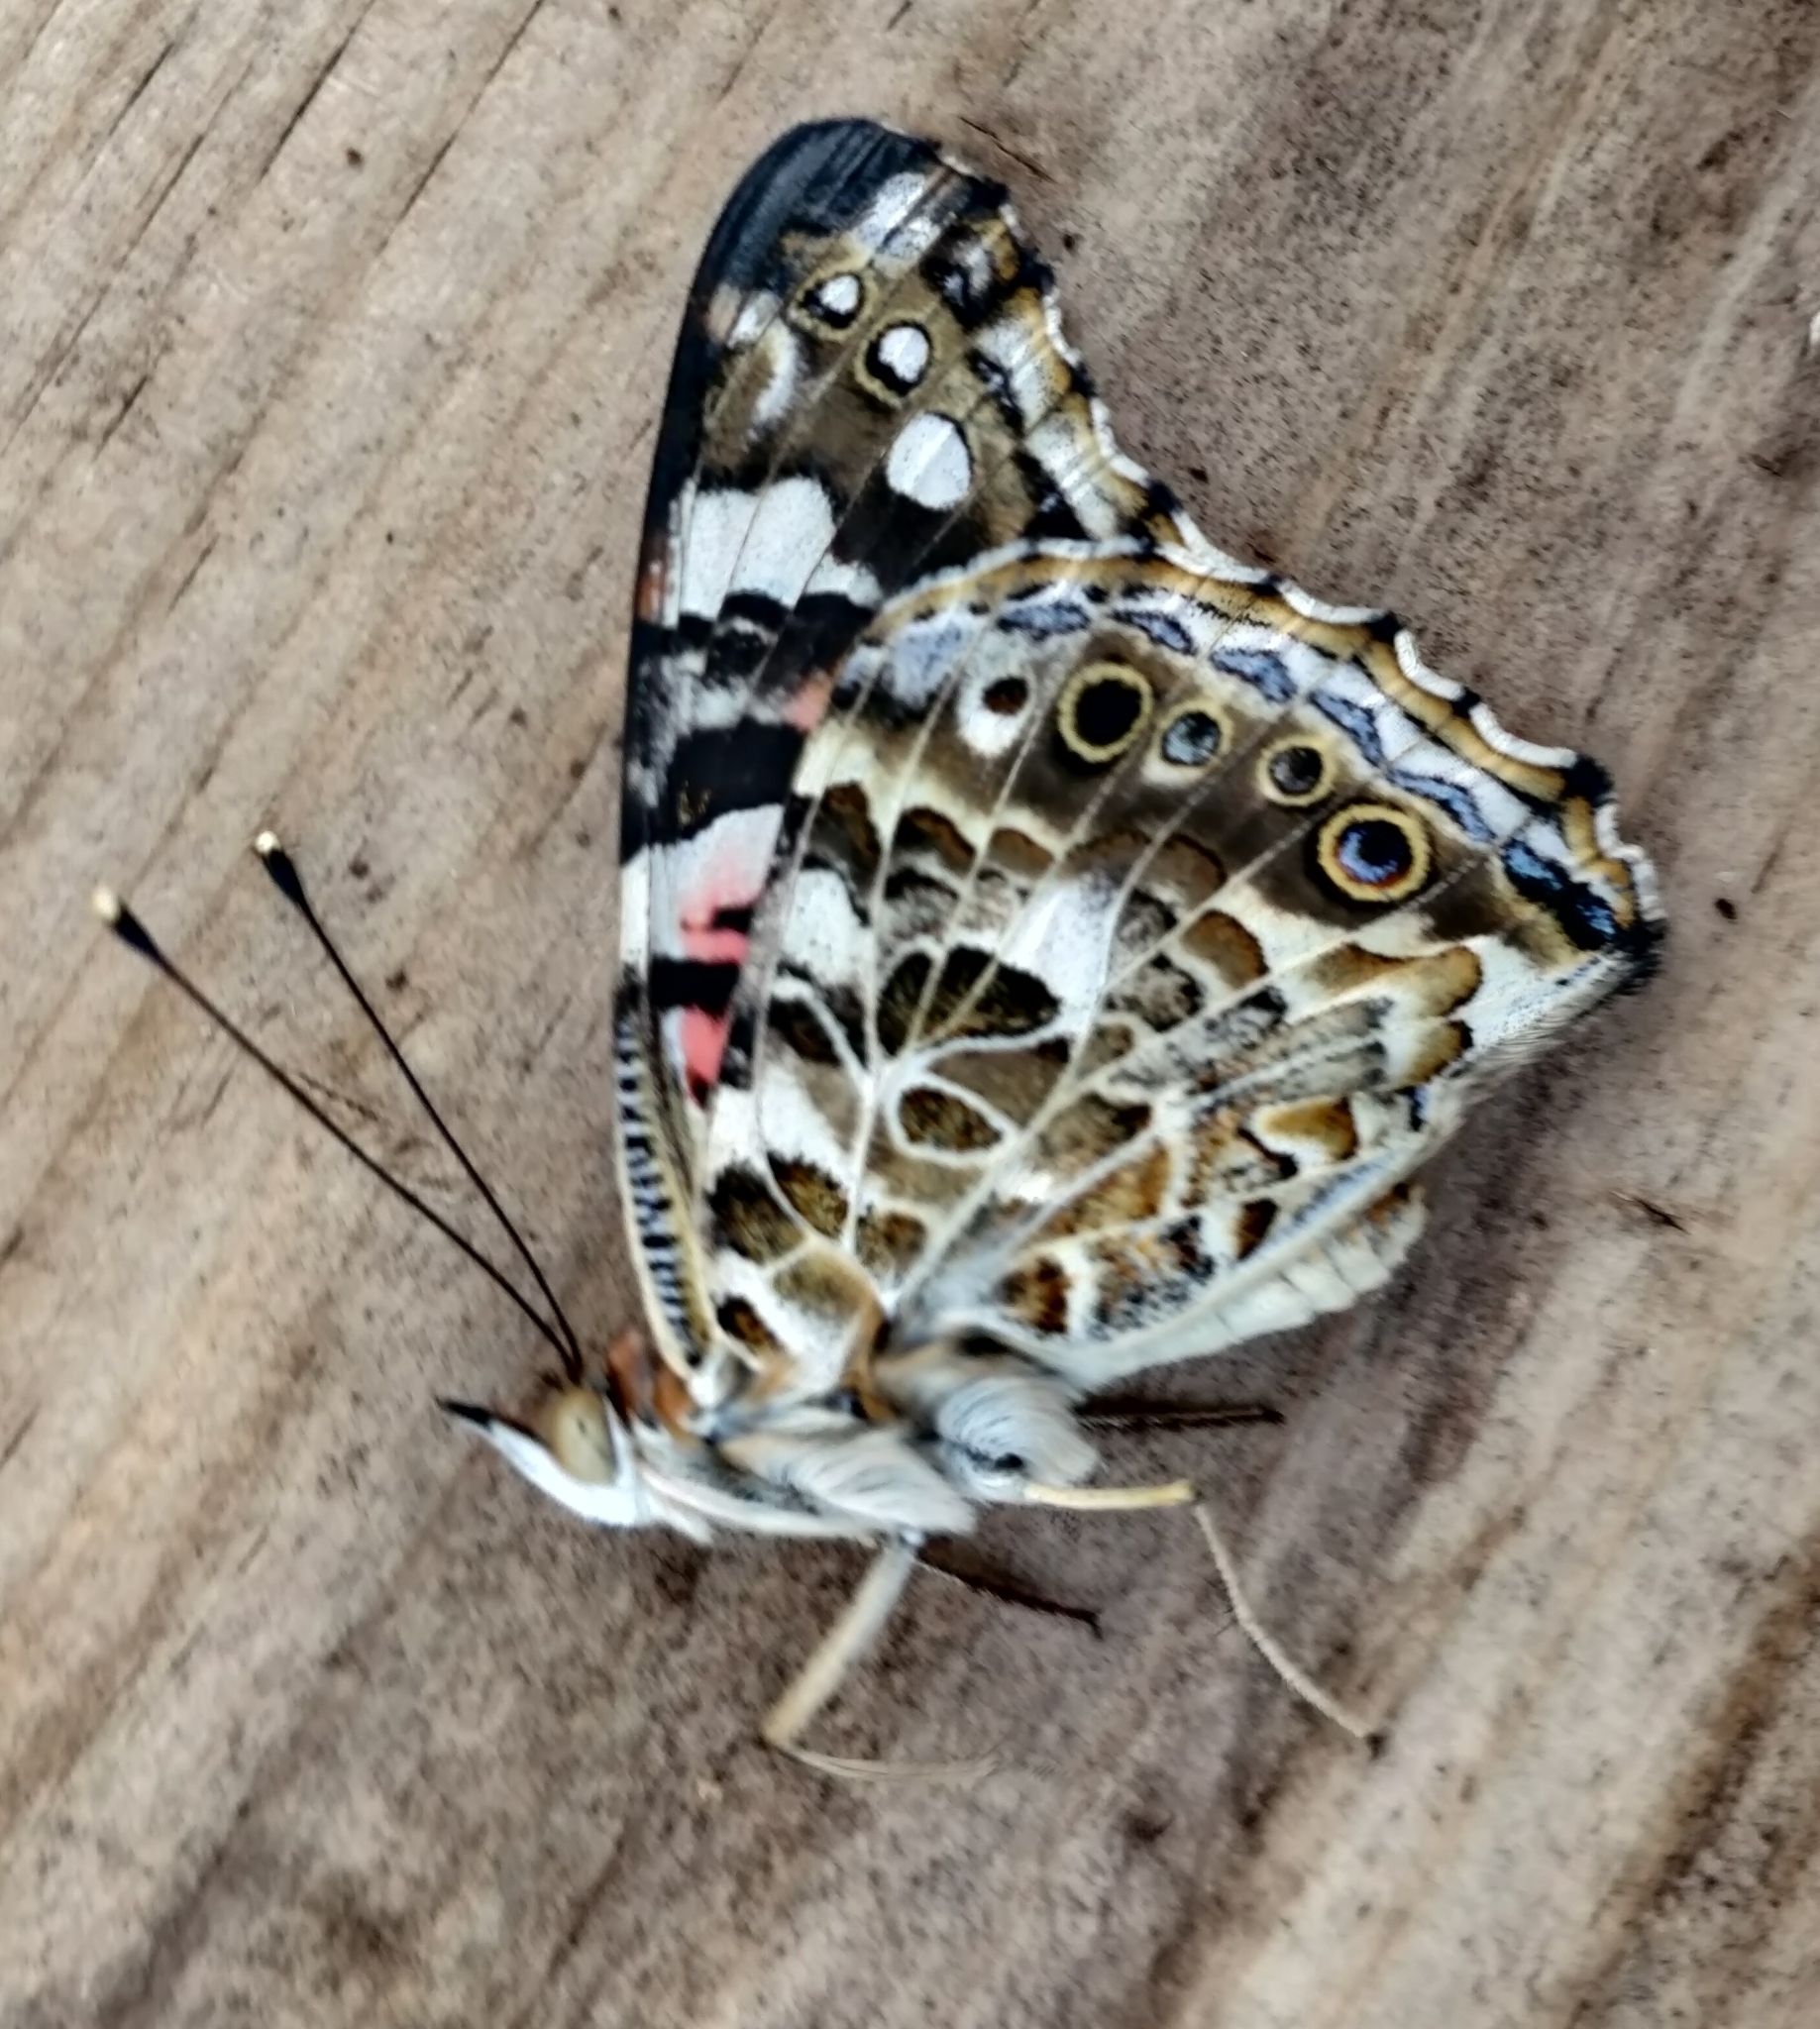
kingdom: Animalia
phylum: Arthropoda
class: Insecta
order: Lepidoptera
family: Nymphalidae
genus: Vanessa
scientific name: Vanessa cardui
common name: Painted lady
